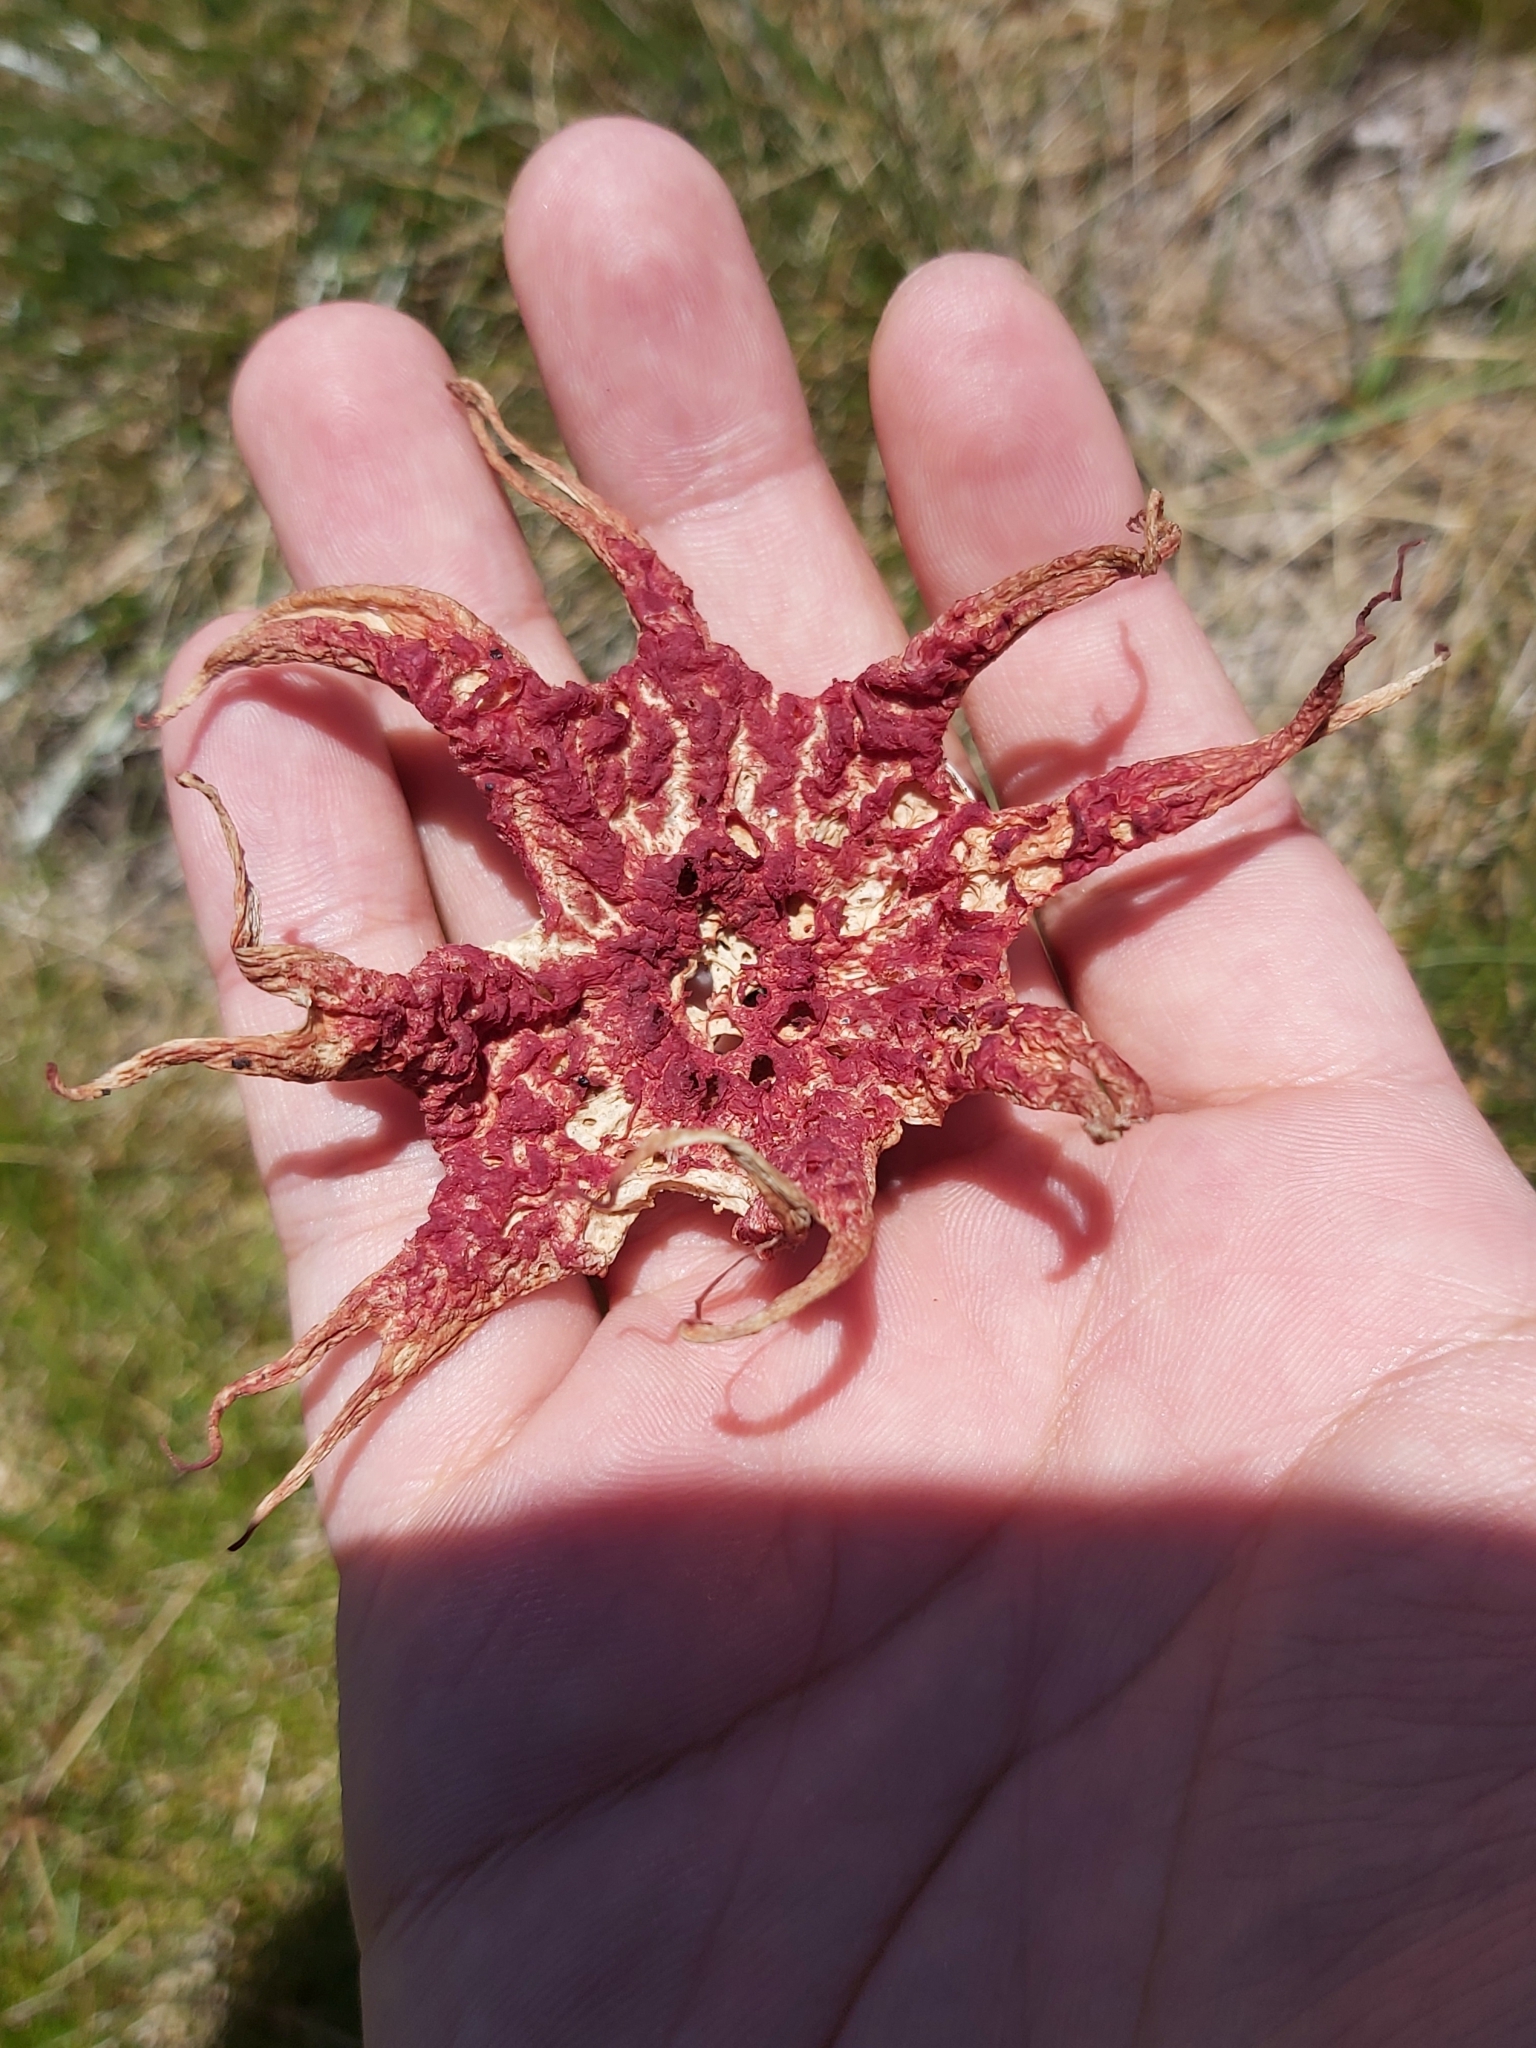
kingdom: Fungi
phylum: Basidiomycota
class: Agaricomycetes
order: Phallales
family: Phallaceae
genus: Aseroe
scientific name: Aseroe rubra
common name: Starfish fungus
